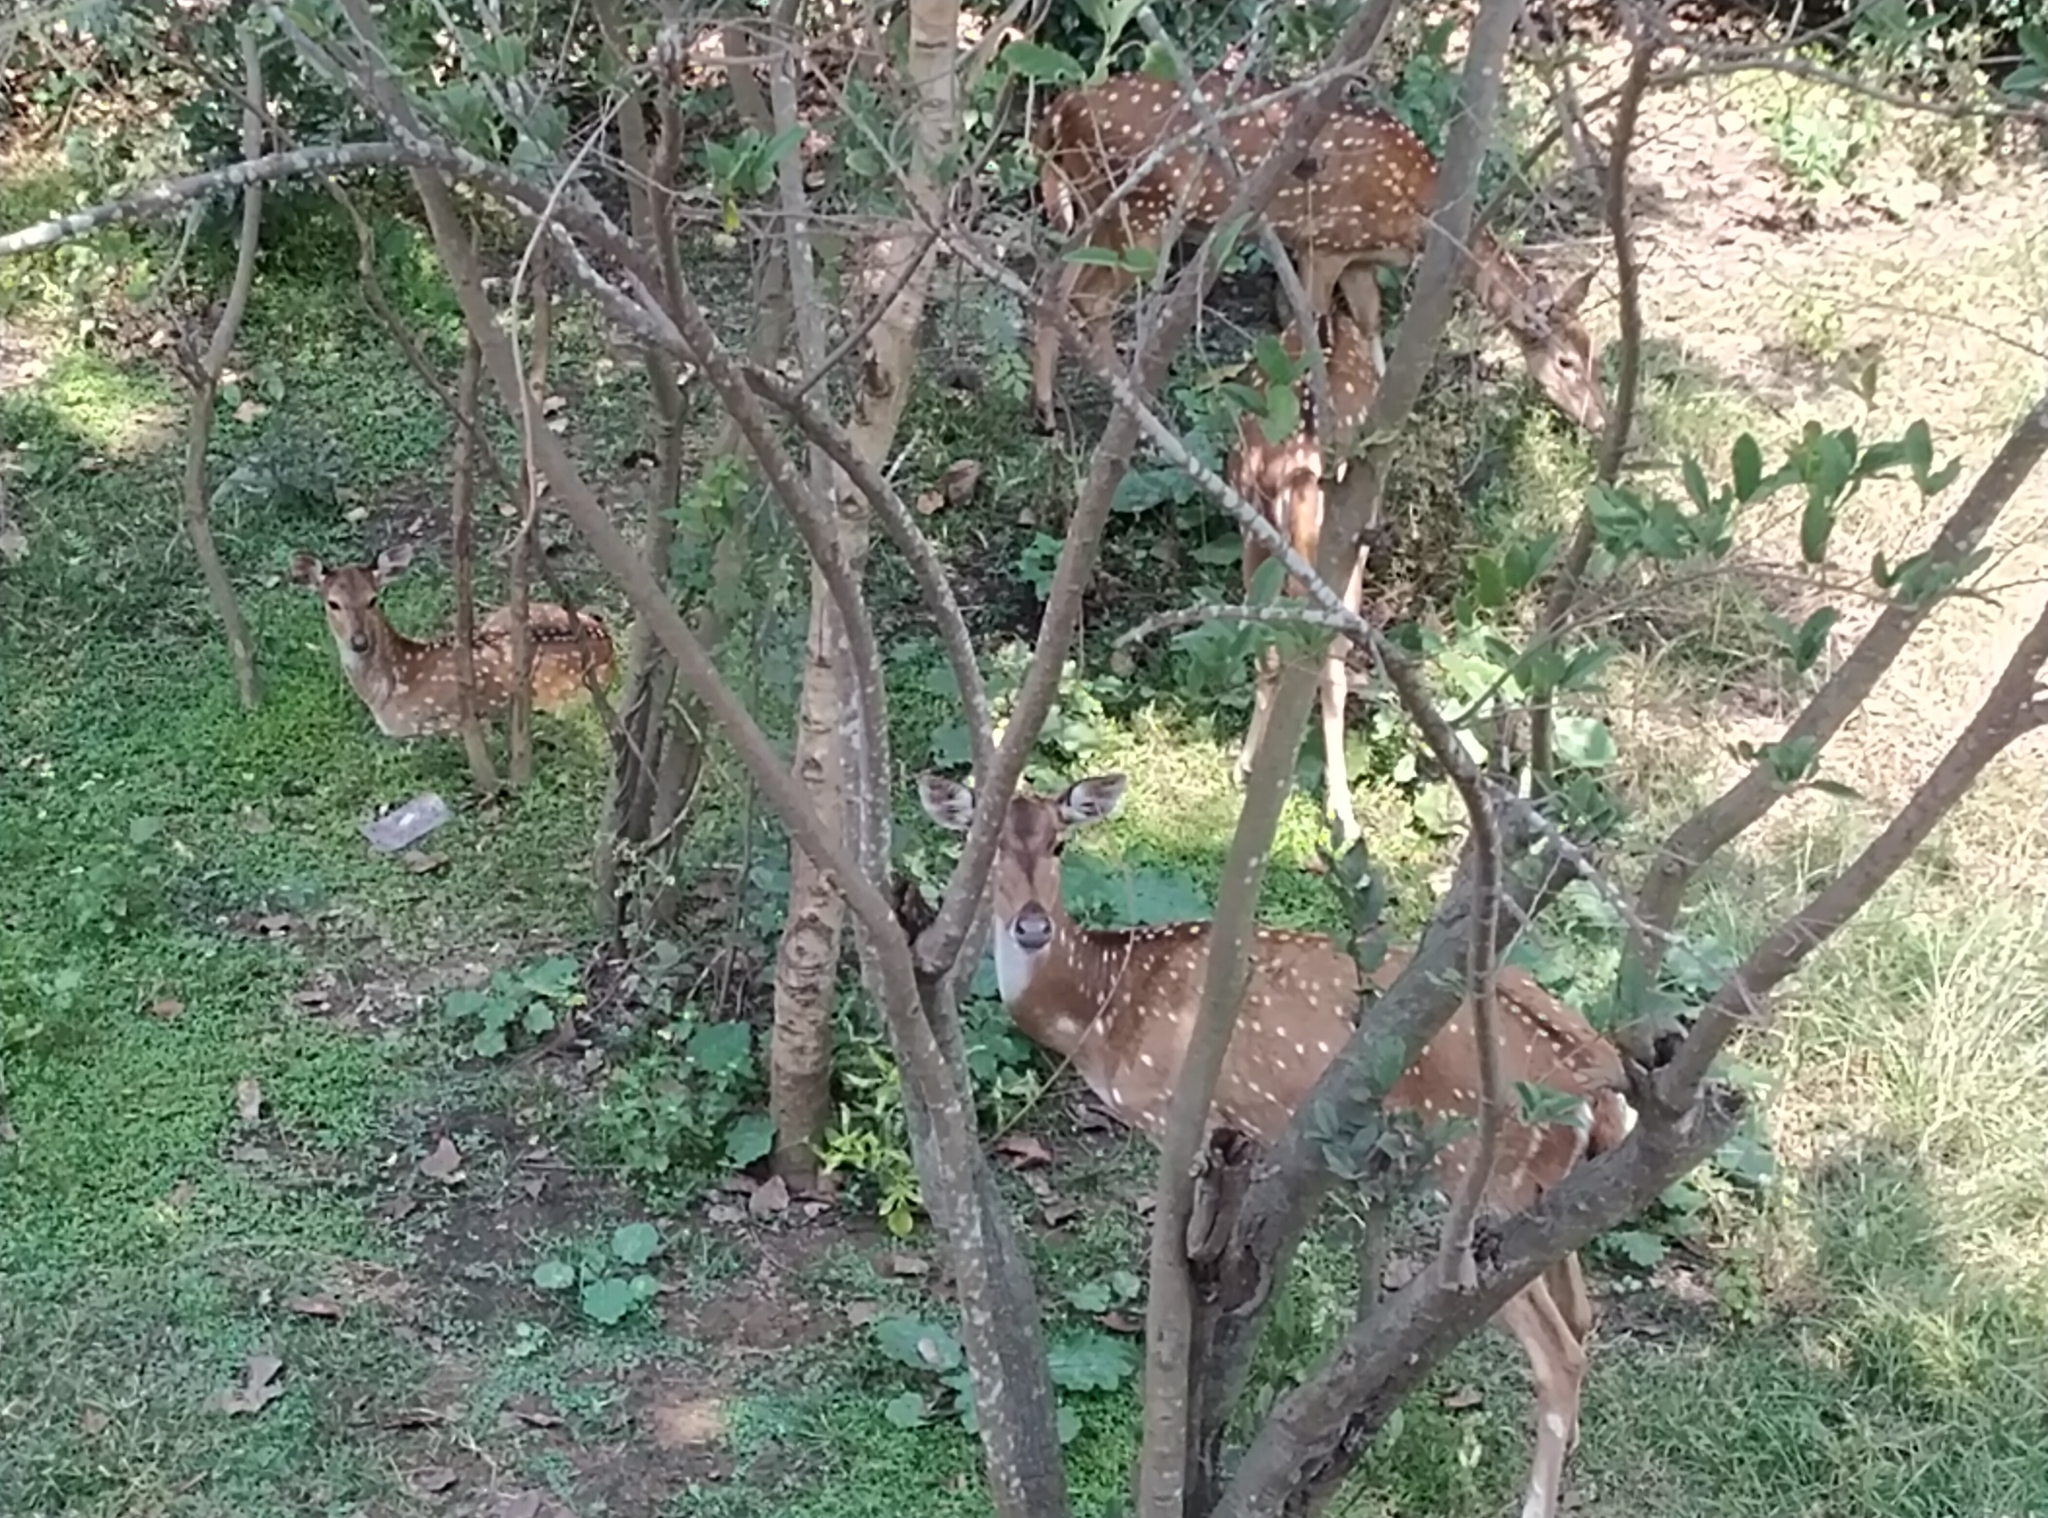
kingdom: Animalia
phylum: Chordata
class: Mammalia
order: Artiodactyla
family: Cervidae
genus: Axis
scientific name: Axis axis
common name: Chital
